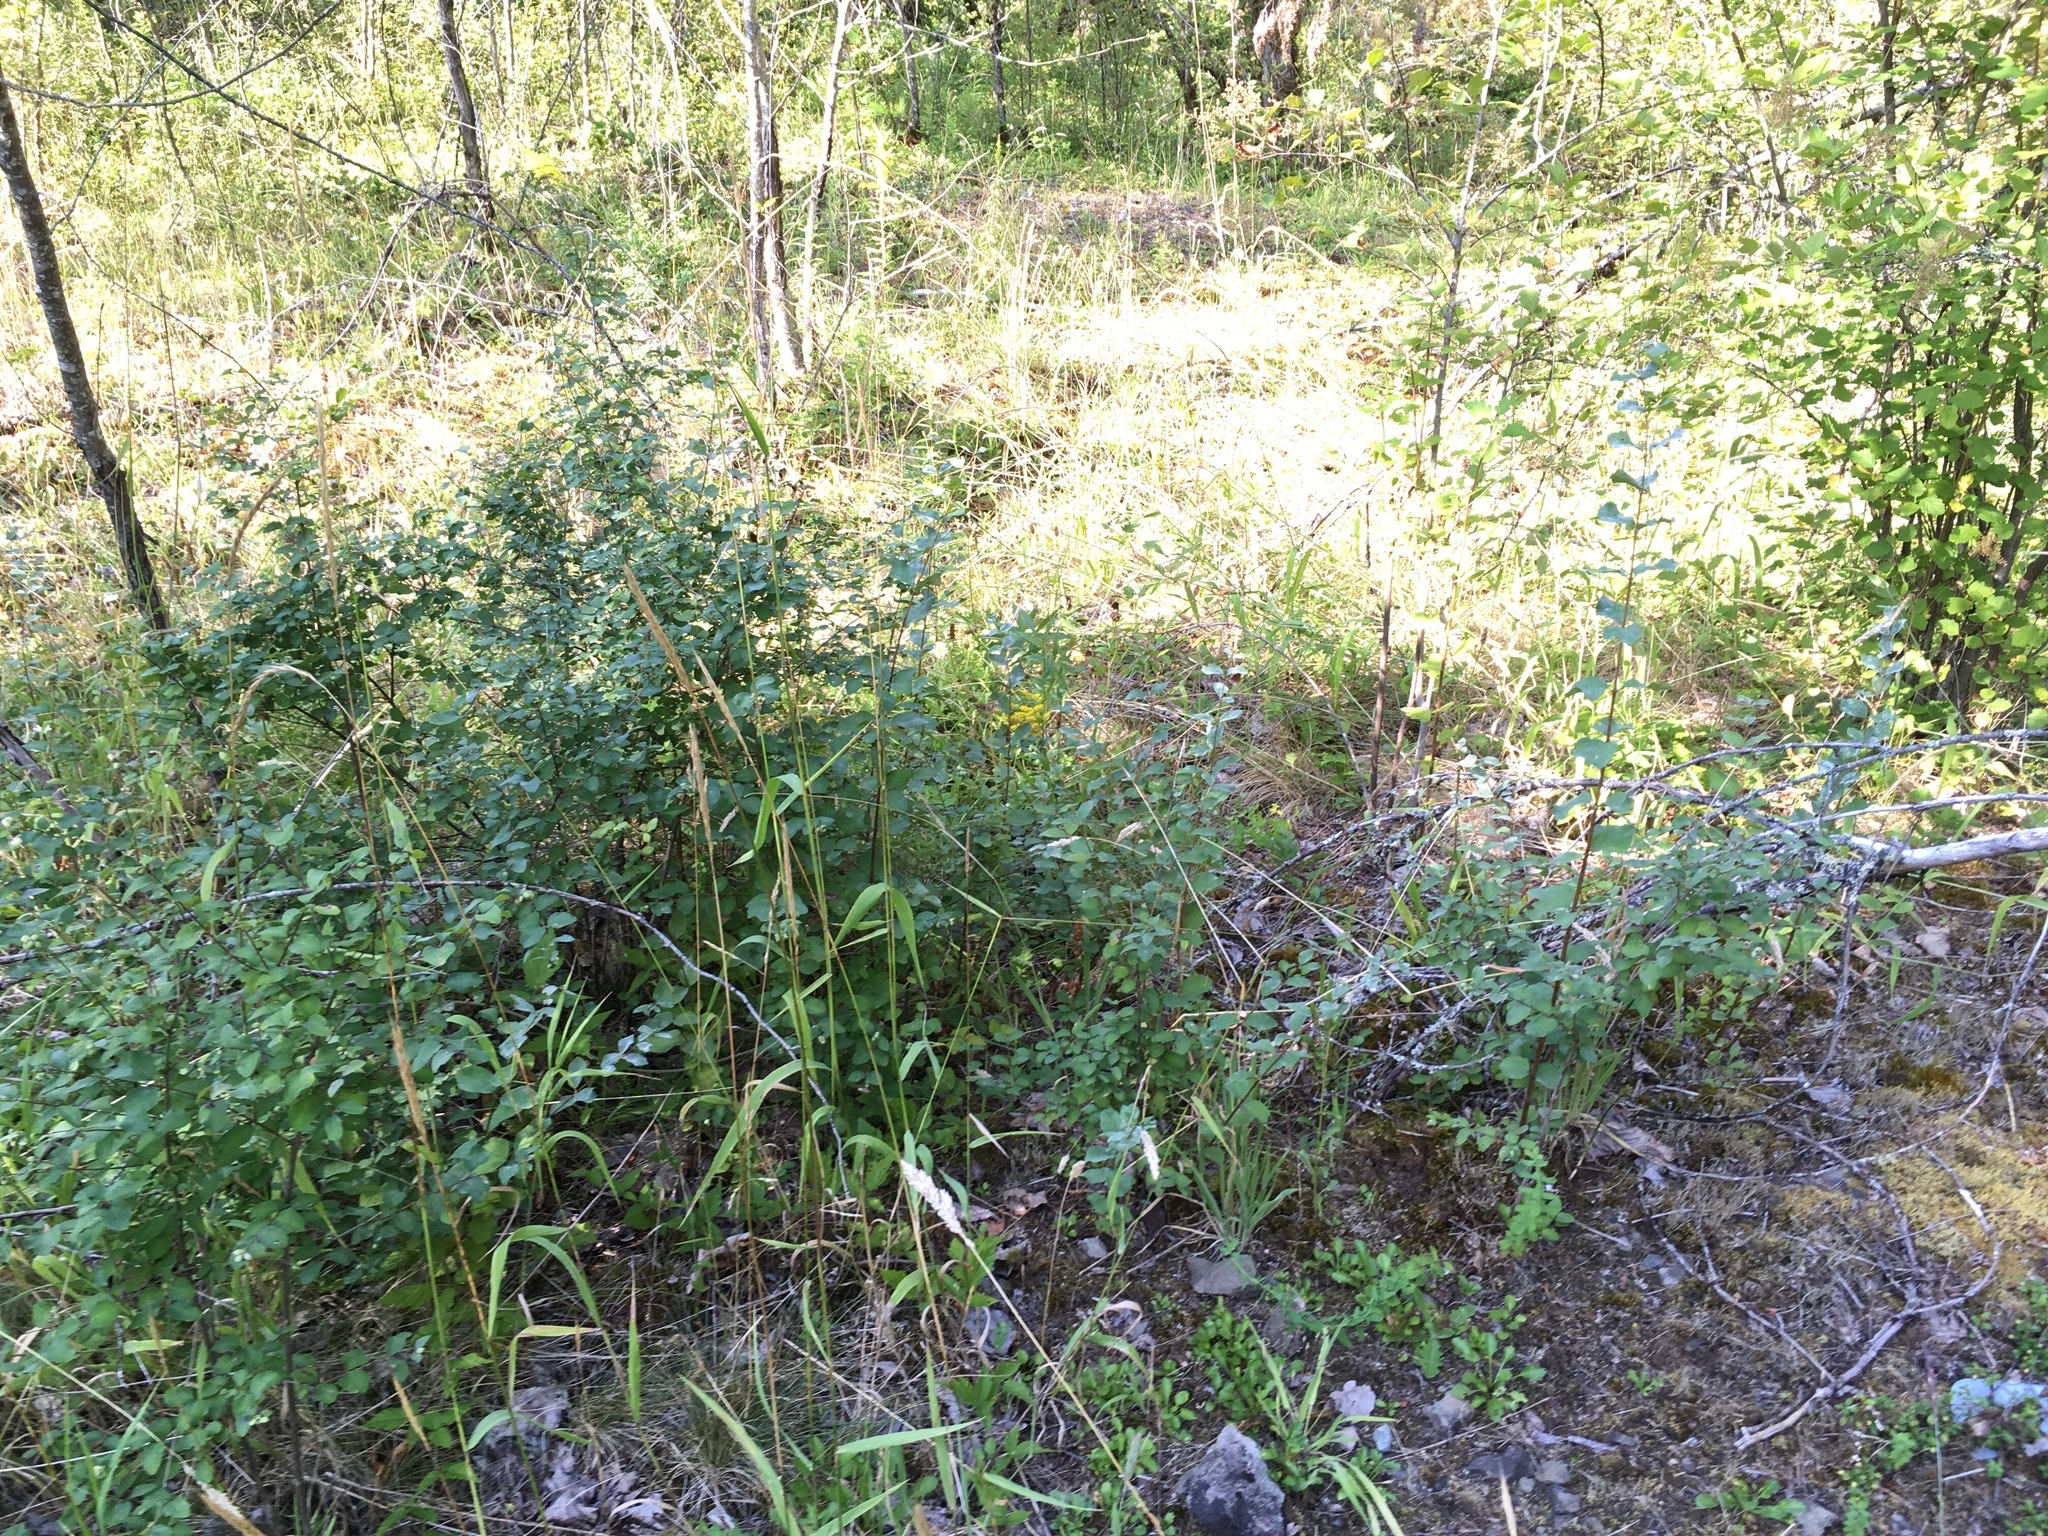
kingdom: Plantae
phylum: Tracheophyta
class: Magnoliopsida
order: Dipsacales
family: Caprifoliaceae
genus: Symphoricarpos
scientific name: Symphoricarpos albus
